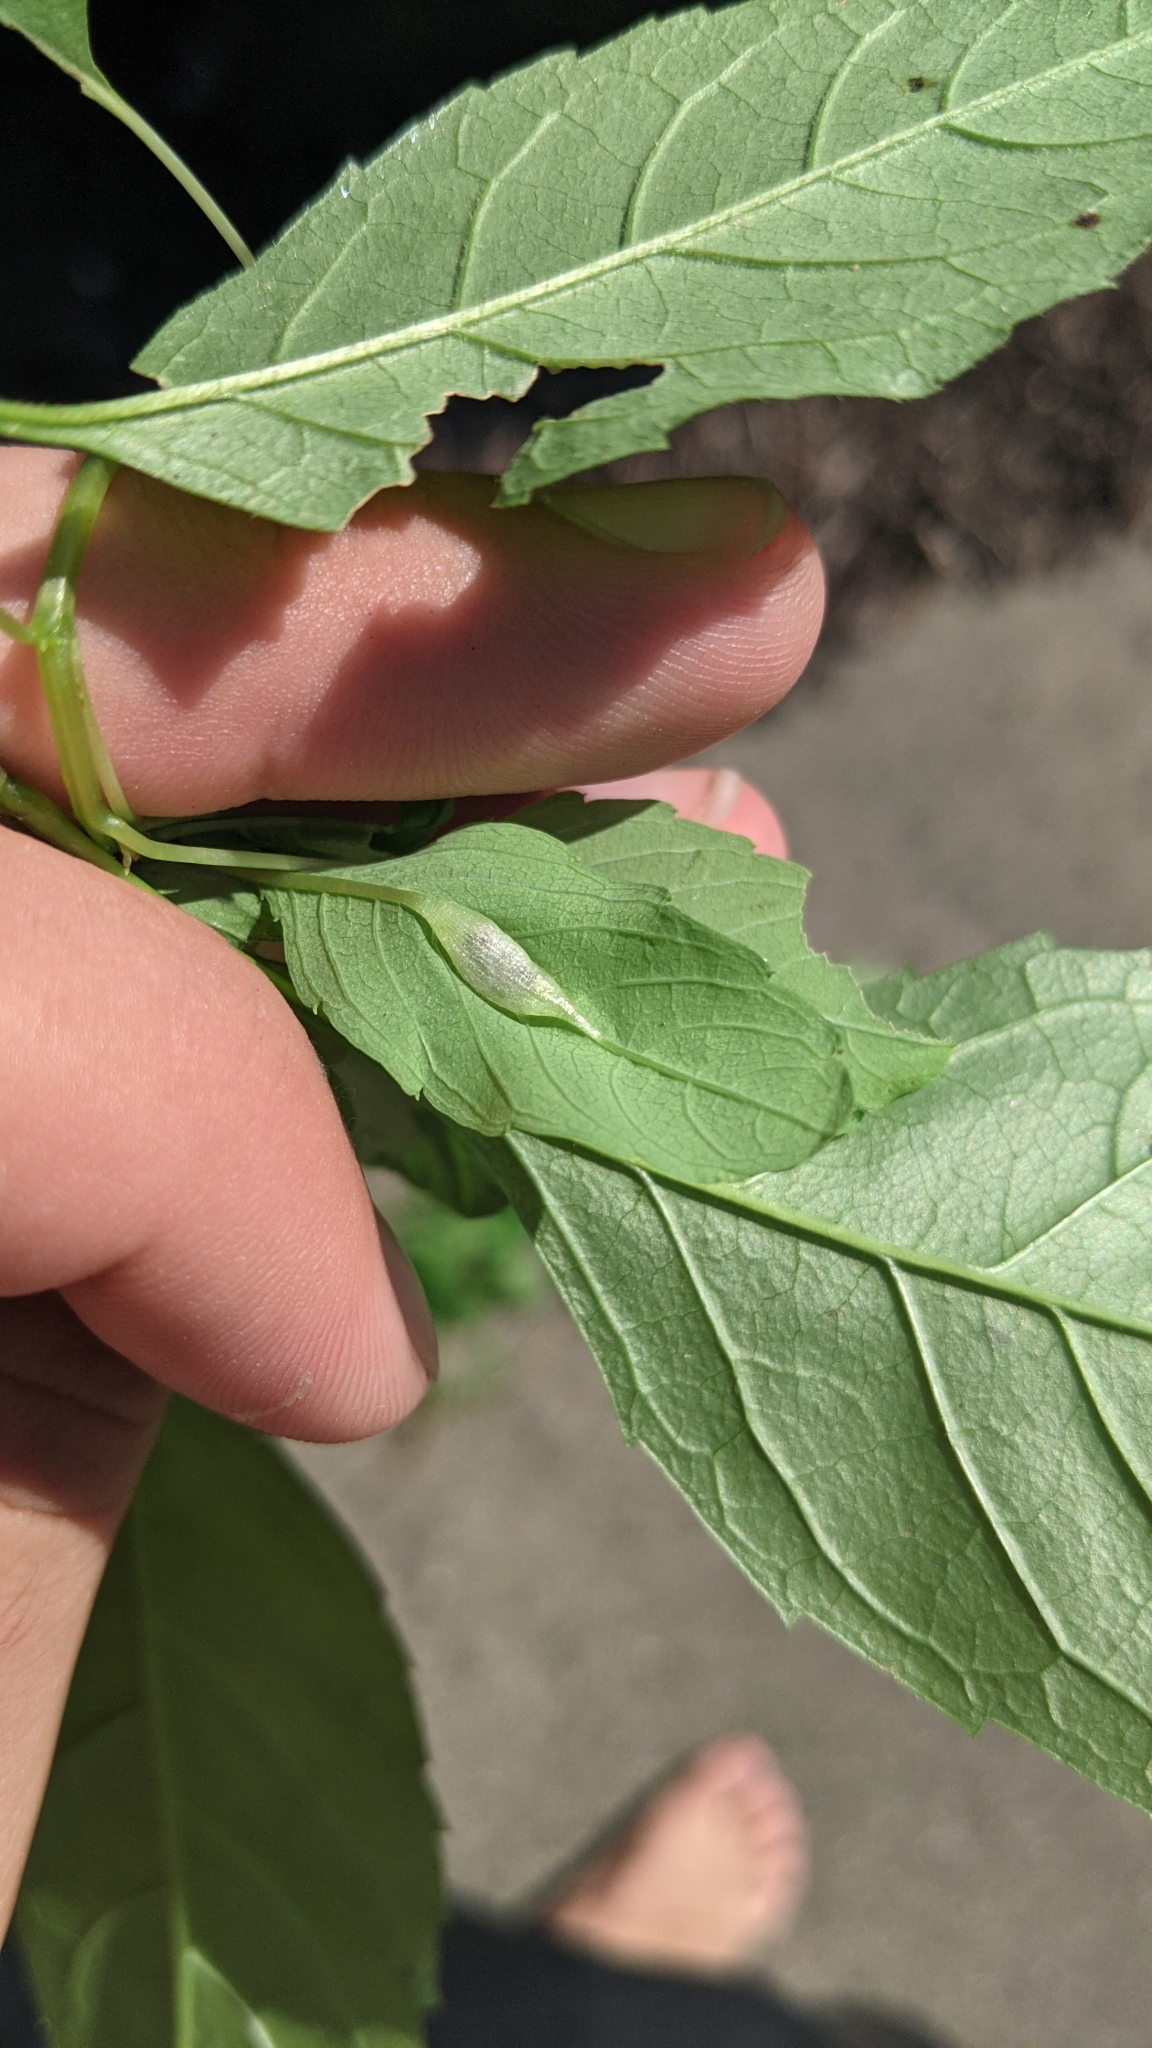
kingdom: Animalia
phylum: Arthropoda
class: Insecta
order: Diptera
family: Cecidomyiidae
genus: Neolasioptera
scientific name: Neolasioptera impatientifolia
